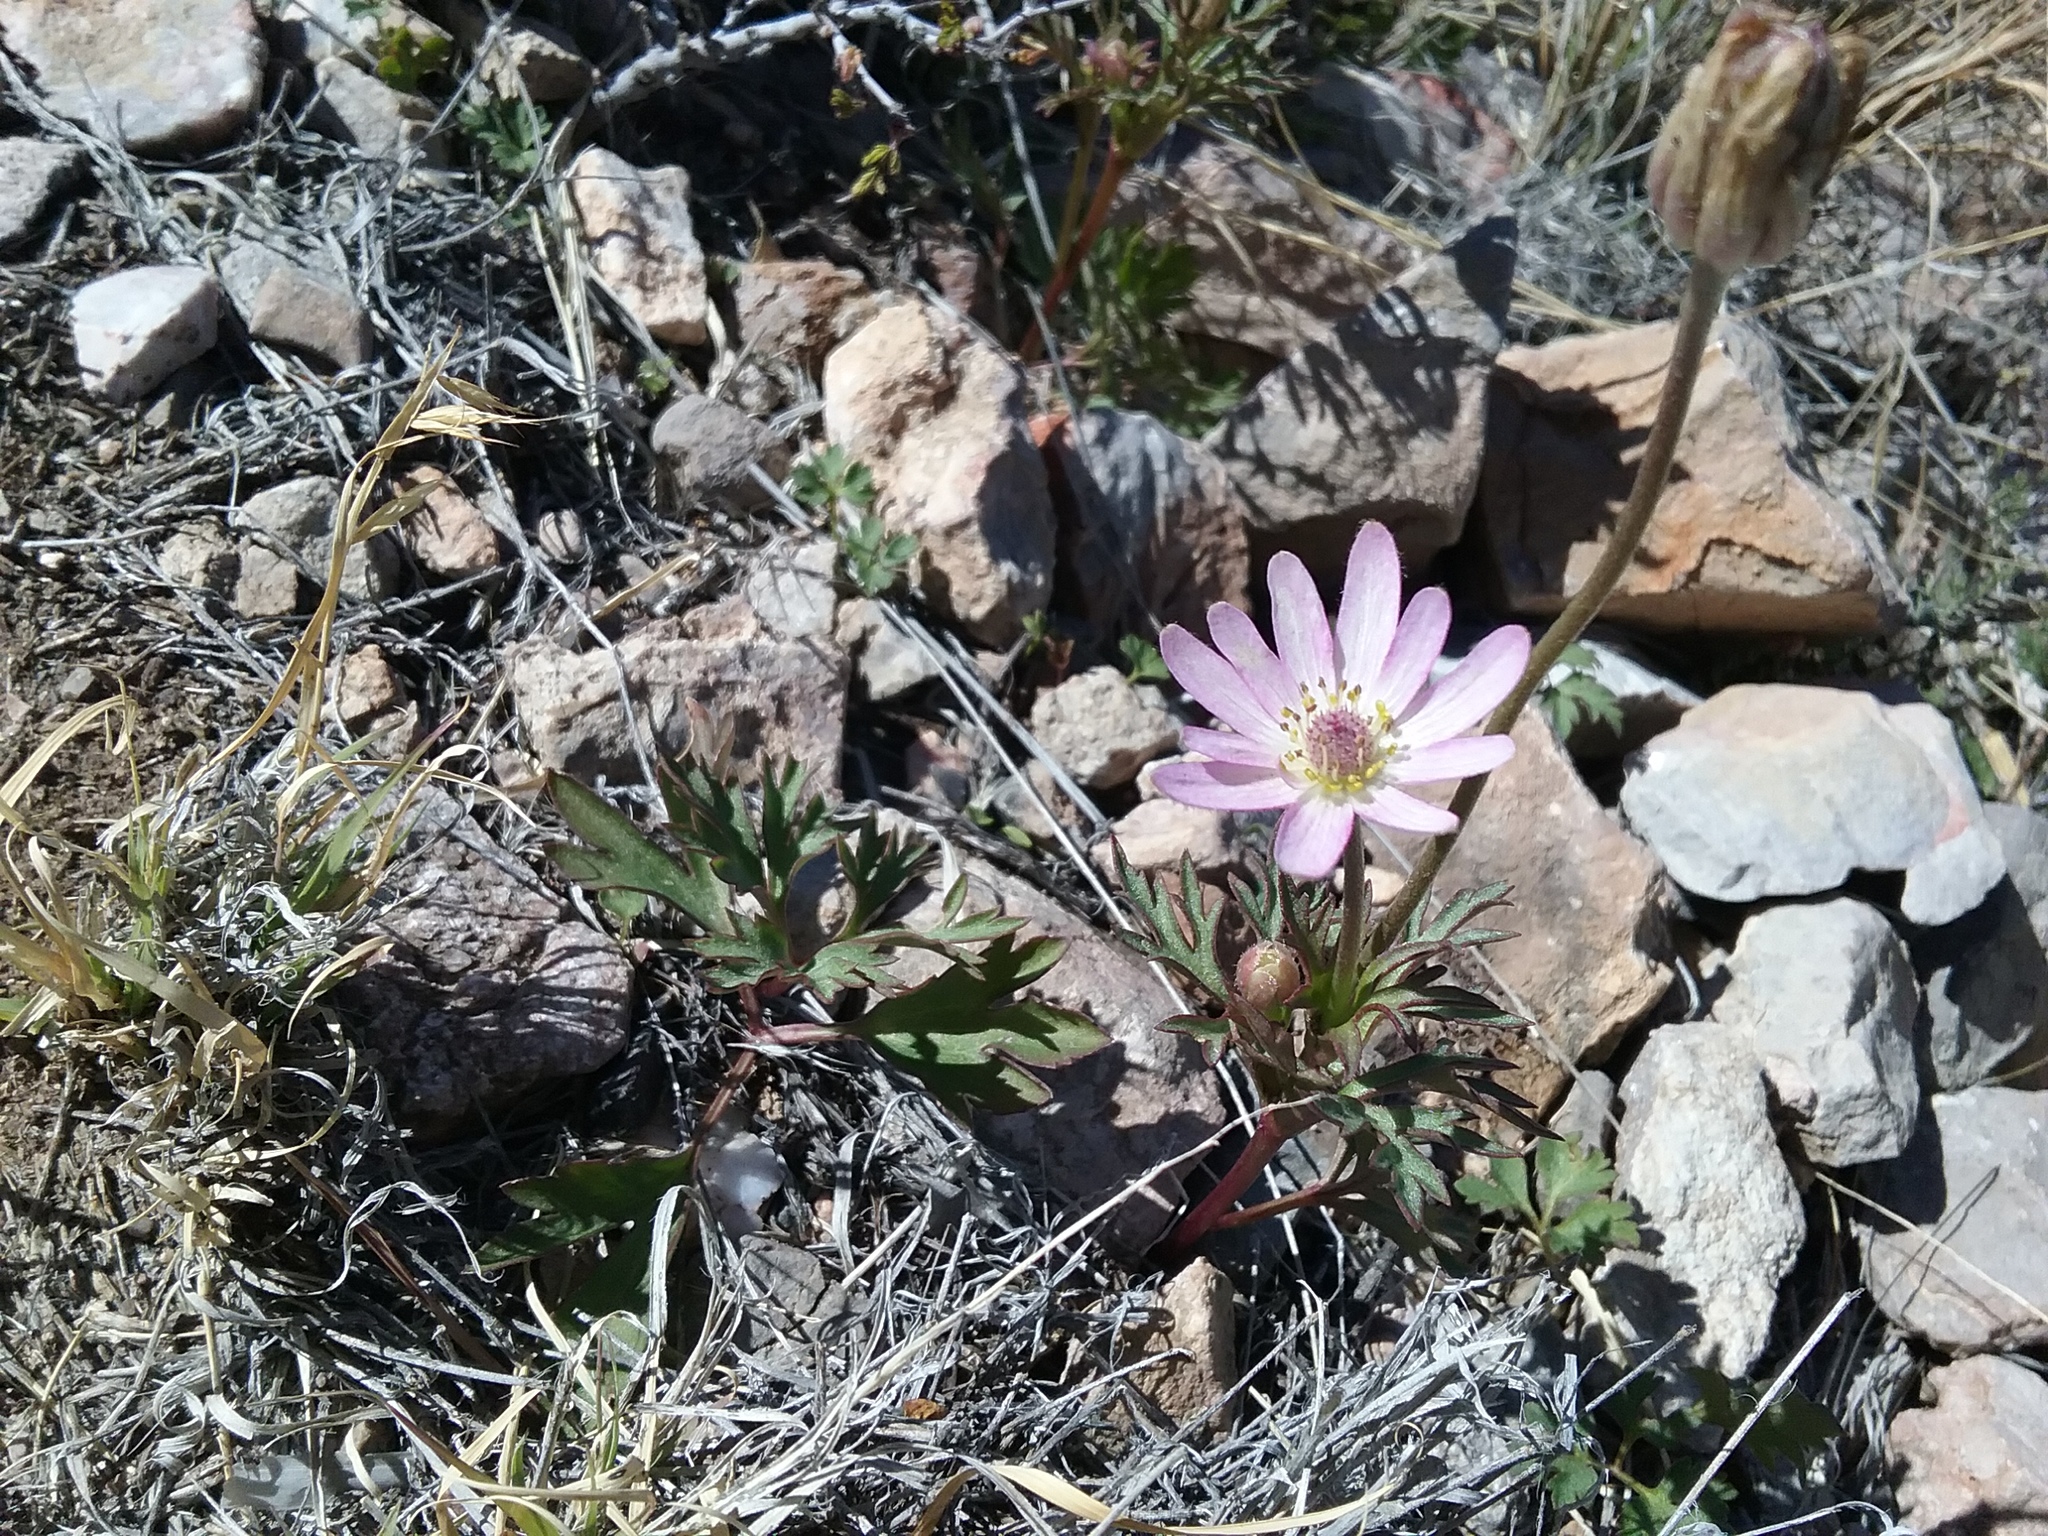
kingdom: Plantae
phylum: Tracheophyta
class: Magnoliopsida
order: Ranunculales
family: Ranunculaceae
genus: Anemone
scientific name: Anemone tuberosa
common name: Desert anemone
